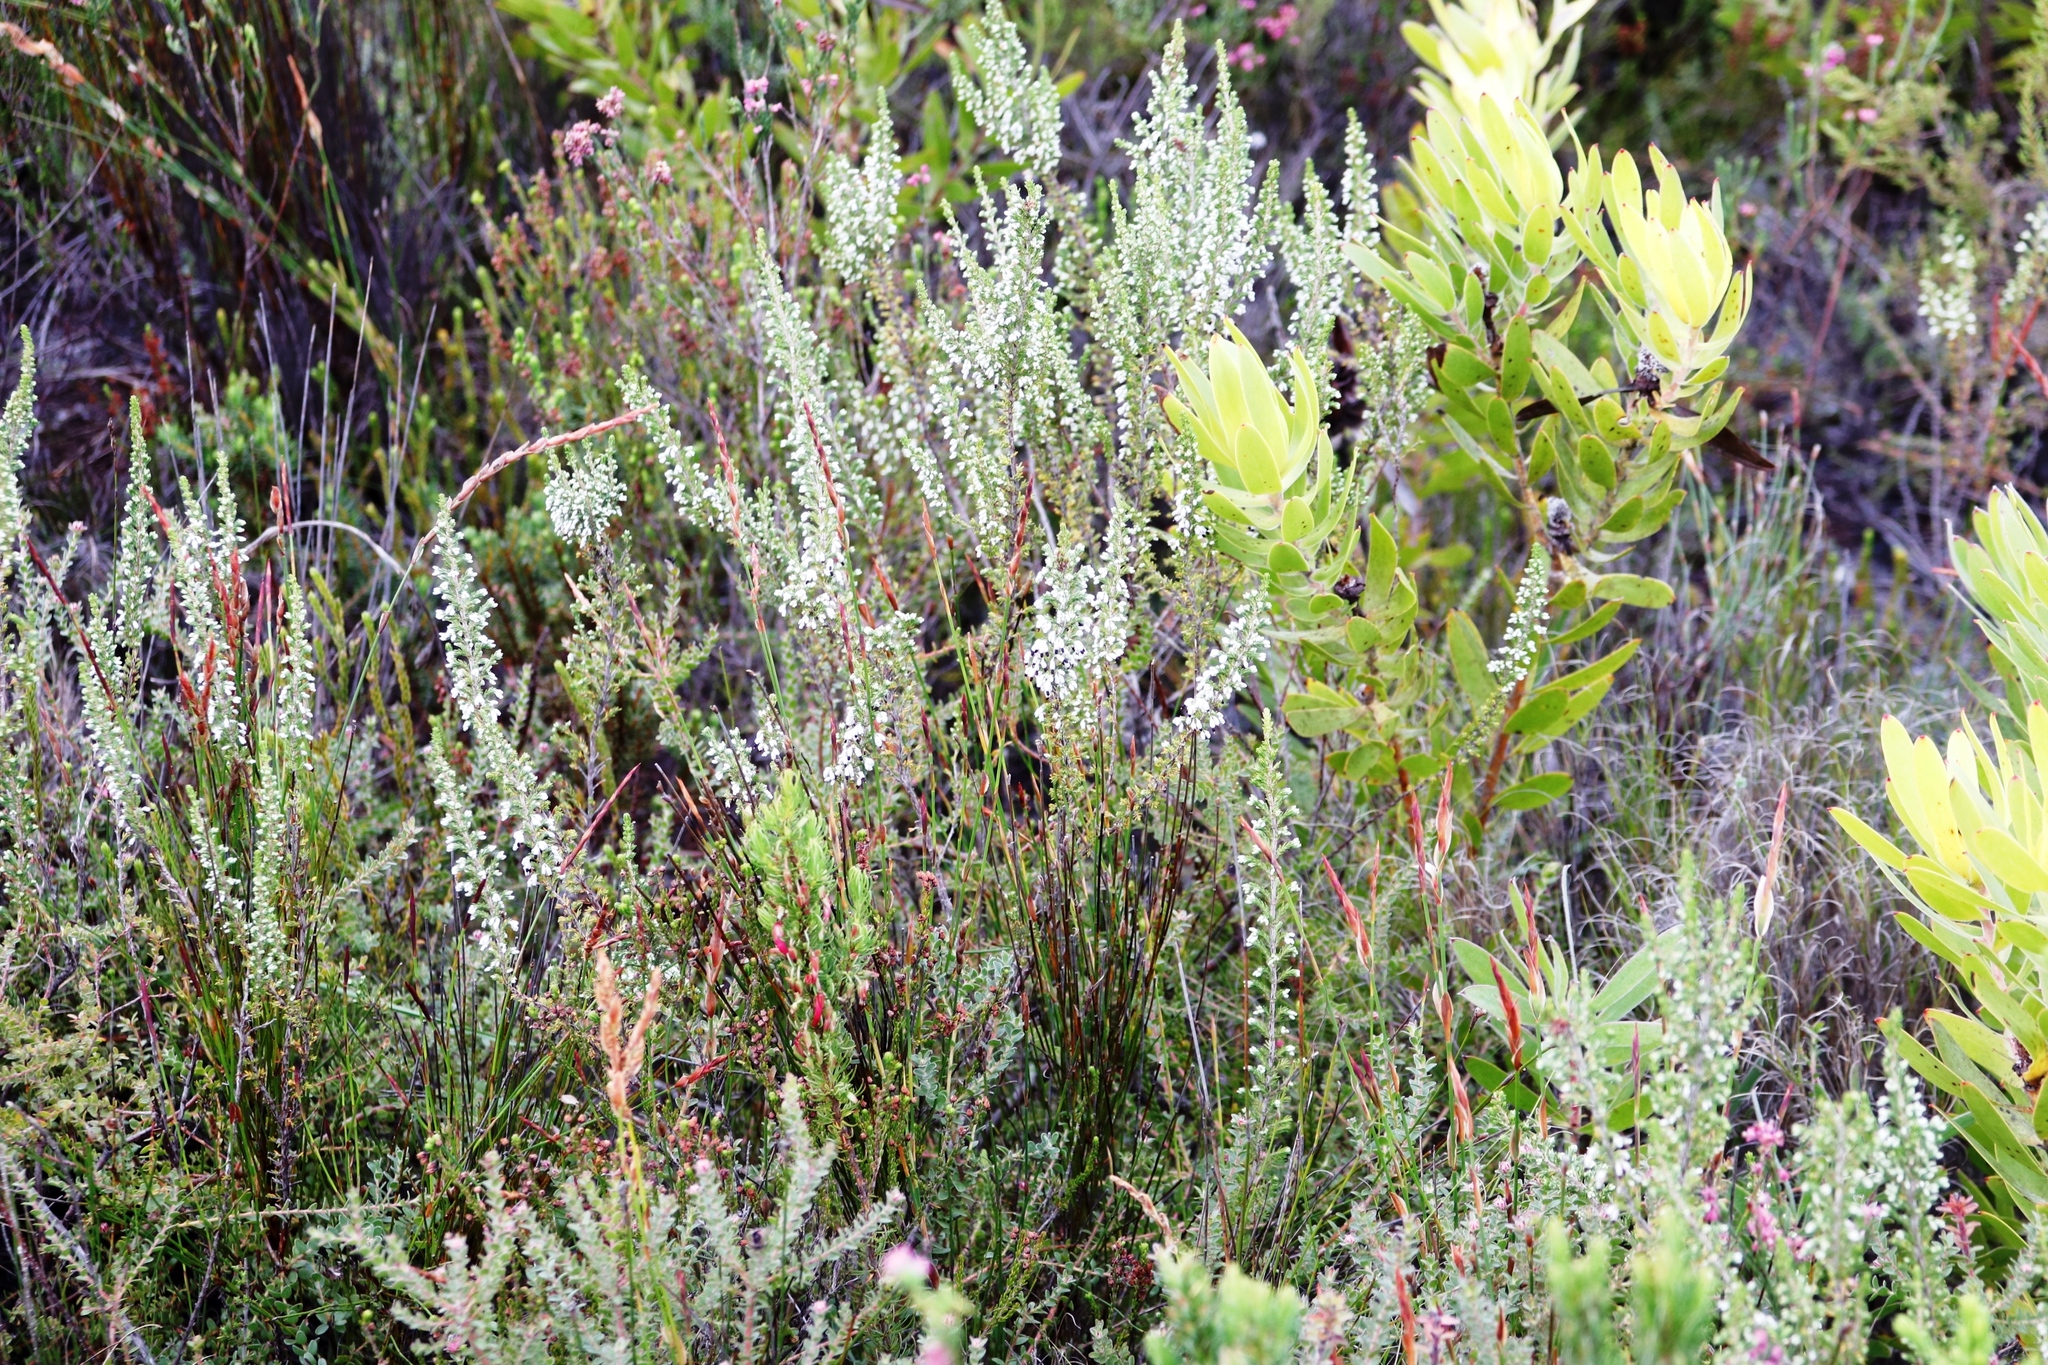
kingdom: Plantae
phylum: Tracheophyta
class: Magnoliopsida
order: Ericales
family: Ericaceae
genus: Erica
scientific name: Erica imbricata
